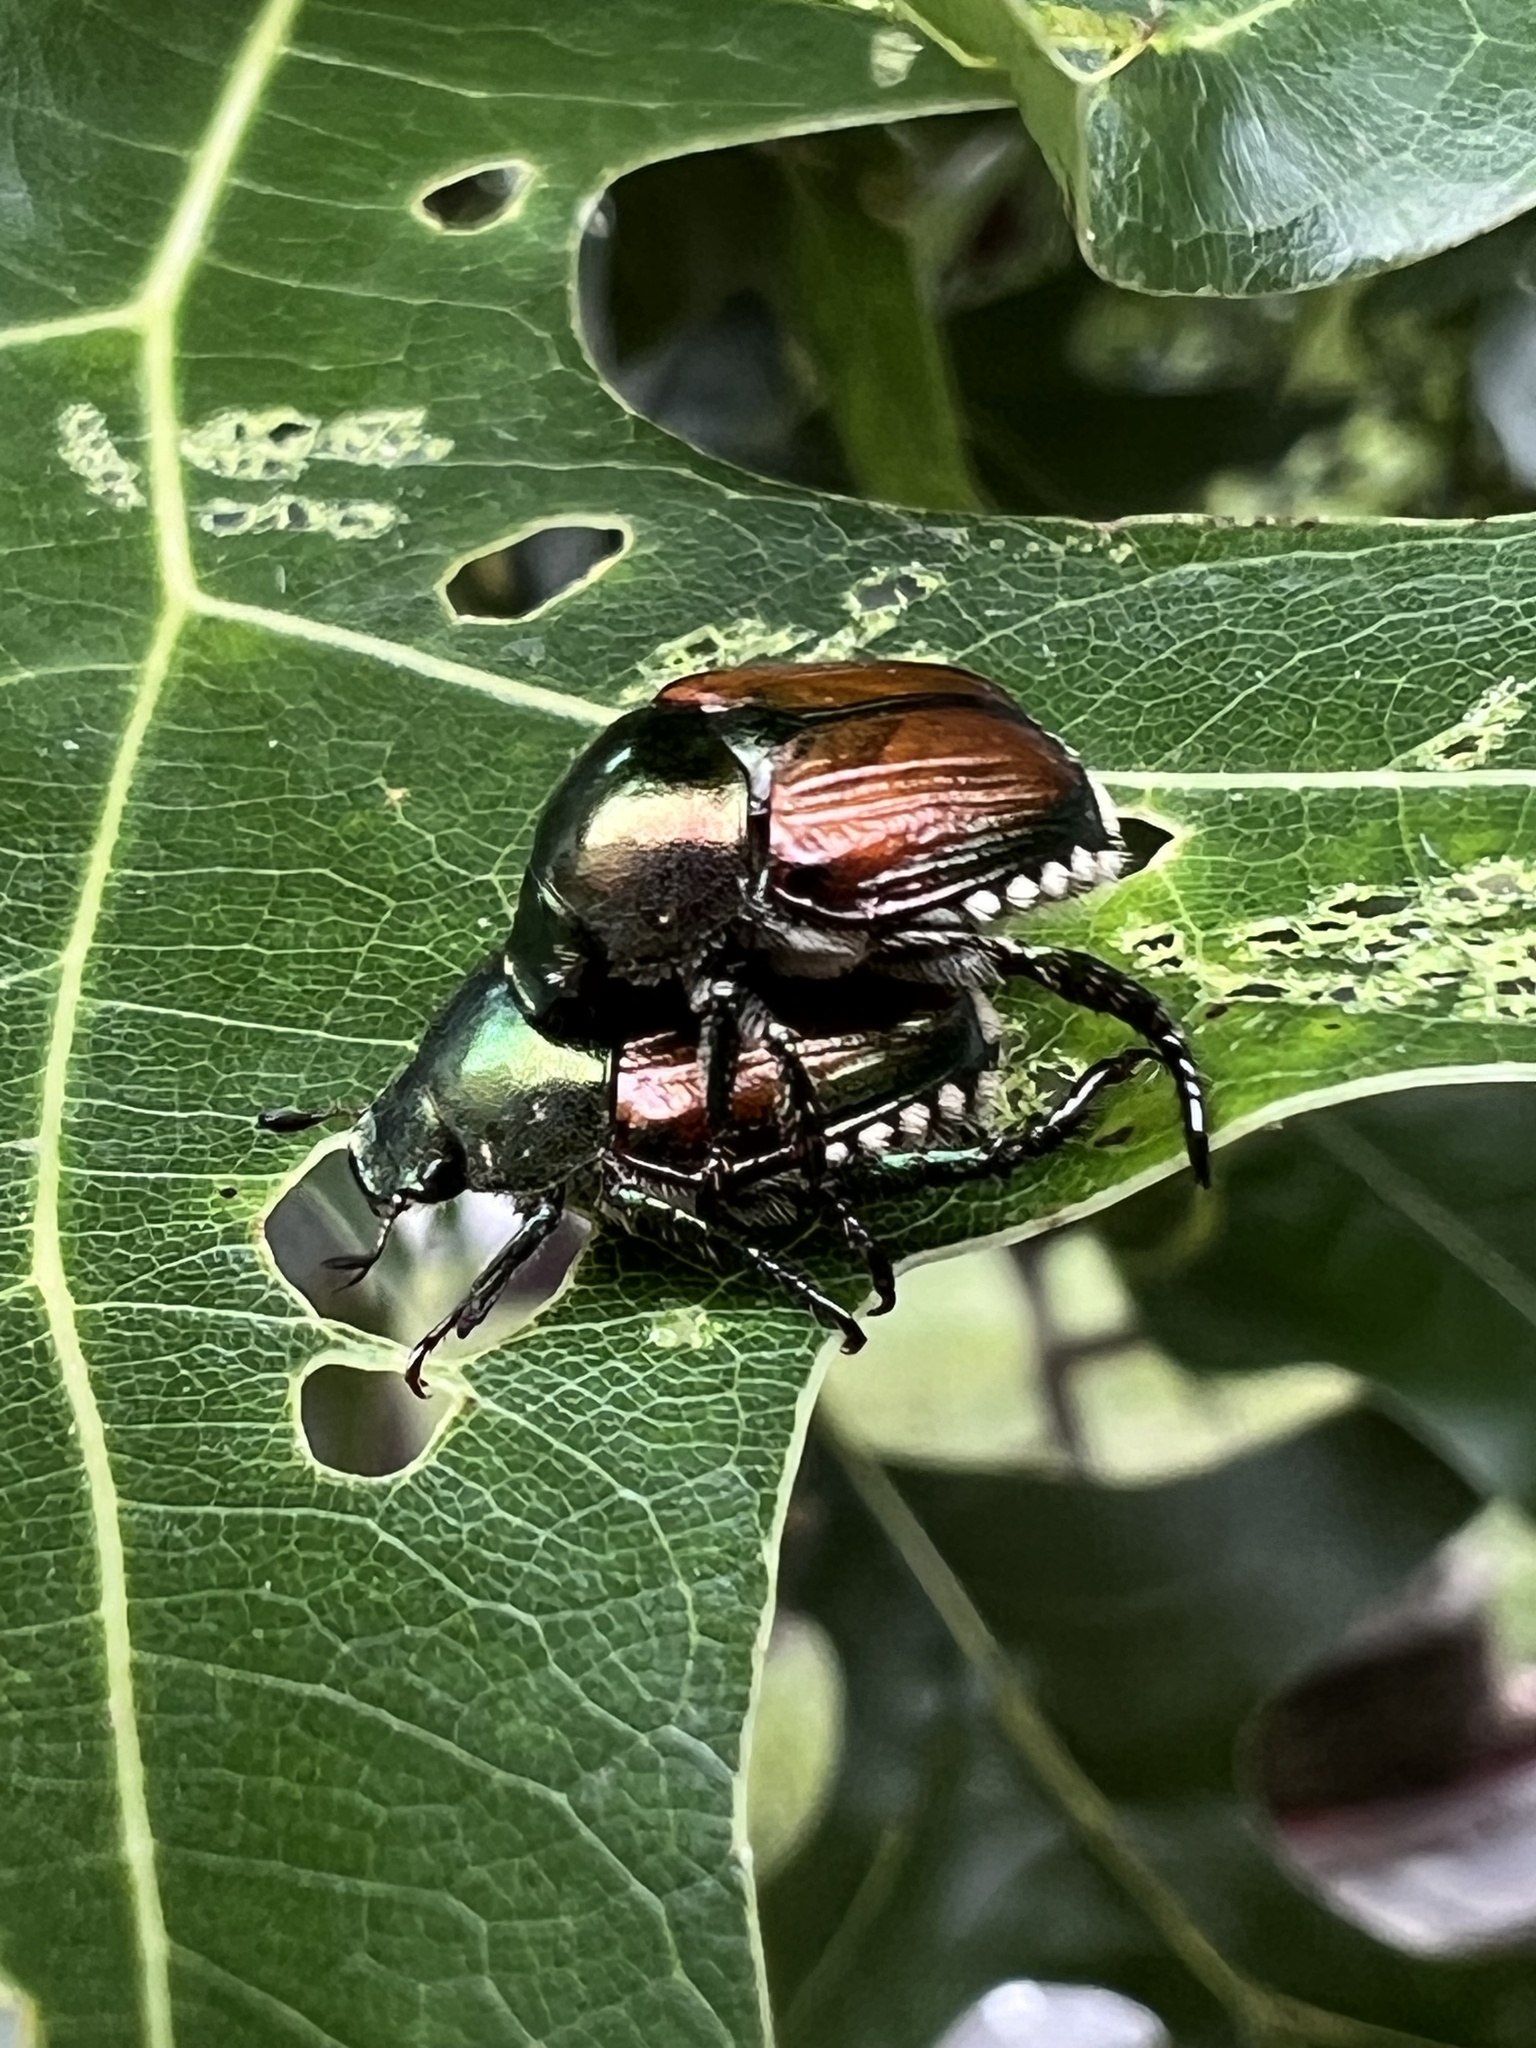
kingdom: Animalia
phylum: Arthropoda
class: Insecta
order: Coleoptera
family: Scarabaeidae
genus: Popillia
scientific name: Popillia japonica
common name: Japanese beetle
